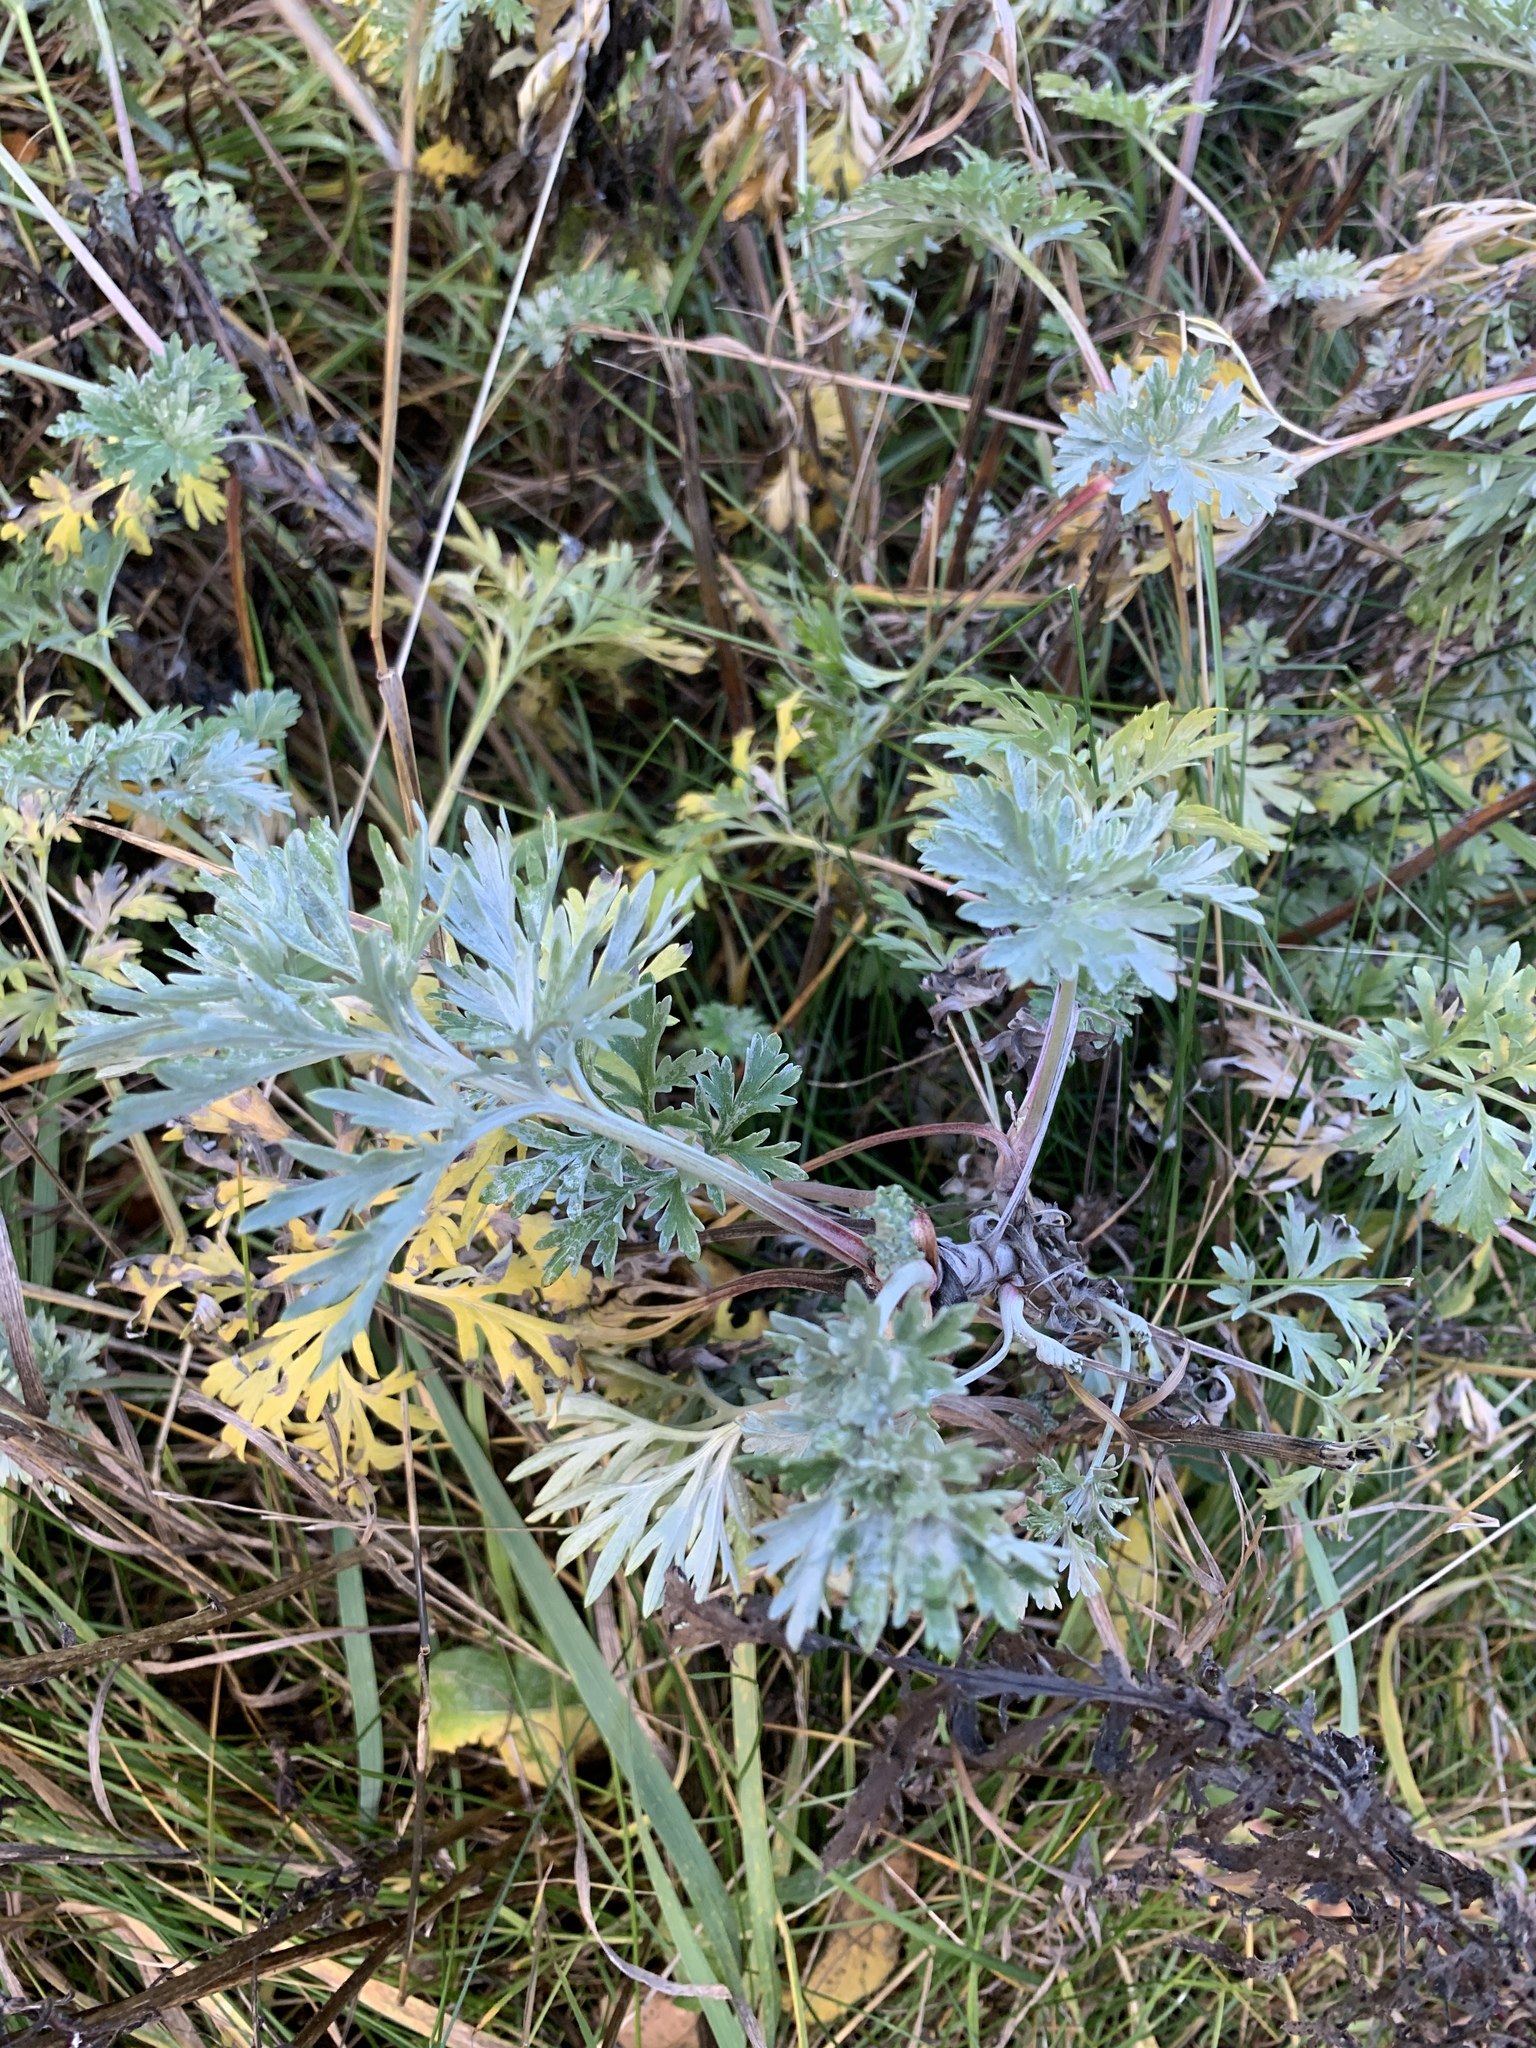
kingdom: Plantae
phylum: Tracheophyta
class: Magnoliopsida
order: Asterales
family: Asteraceae
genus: Artemisia
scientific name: Artemisia absinthium
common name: Wormwood
